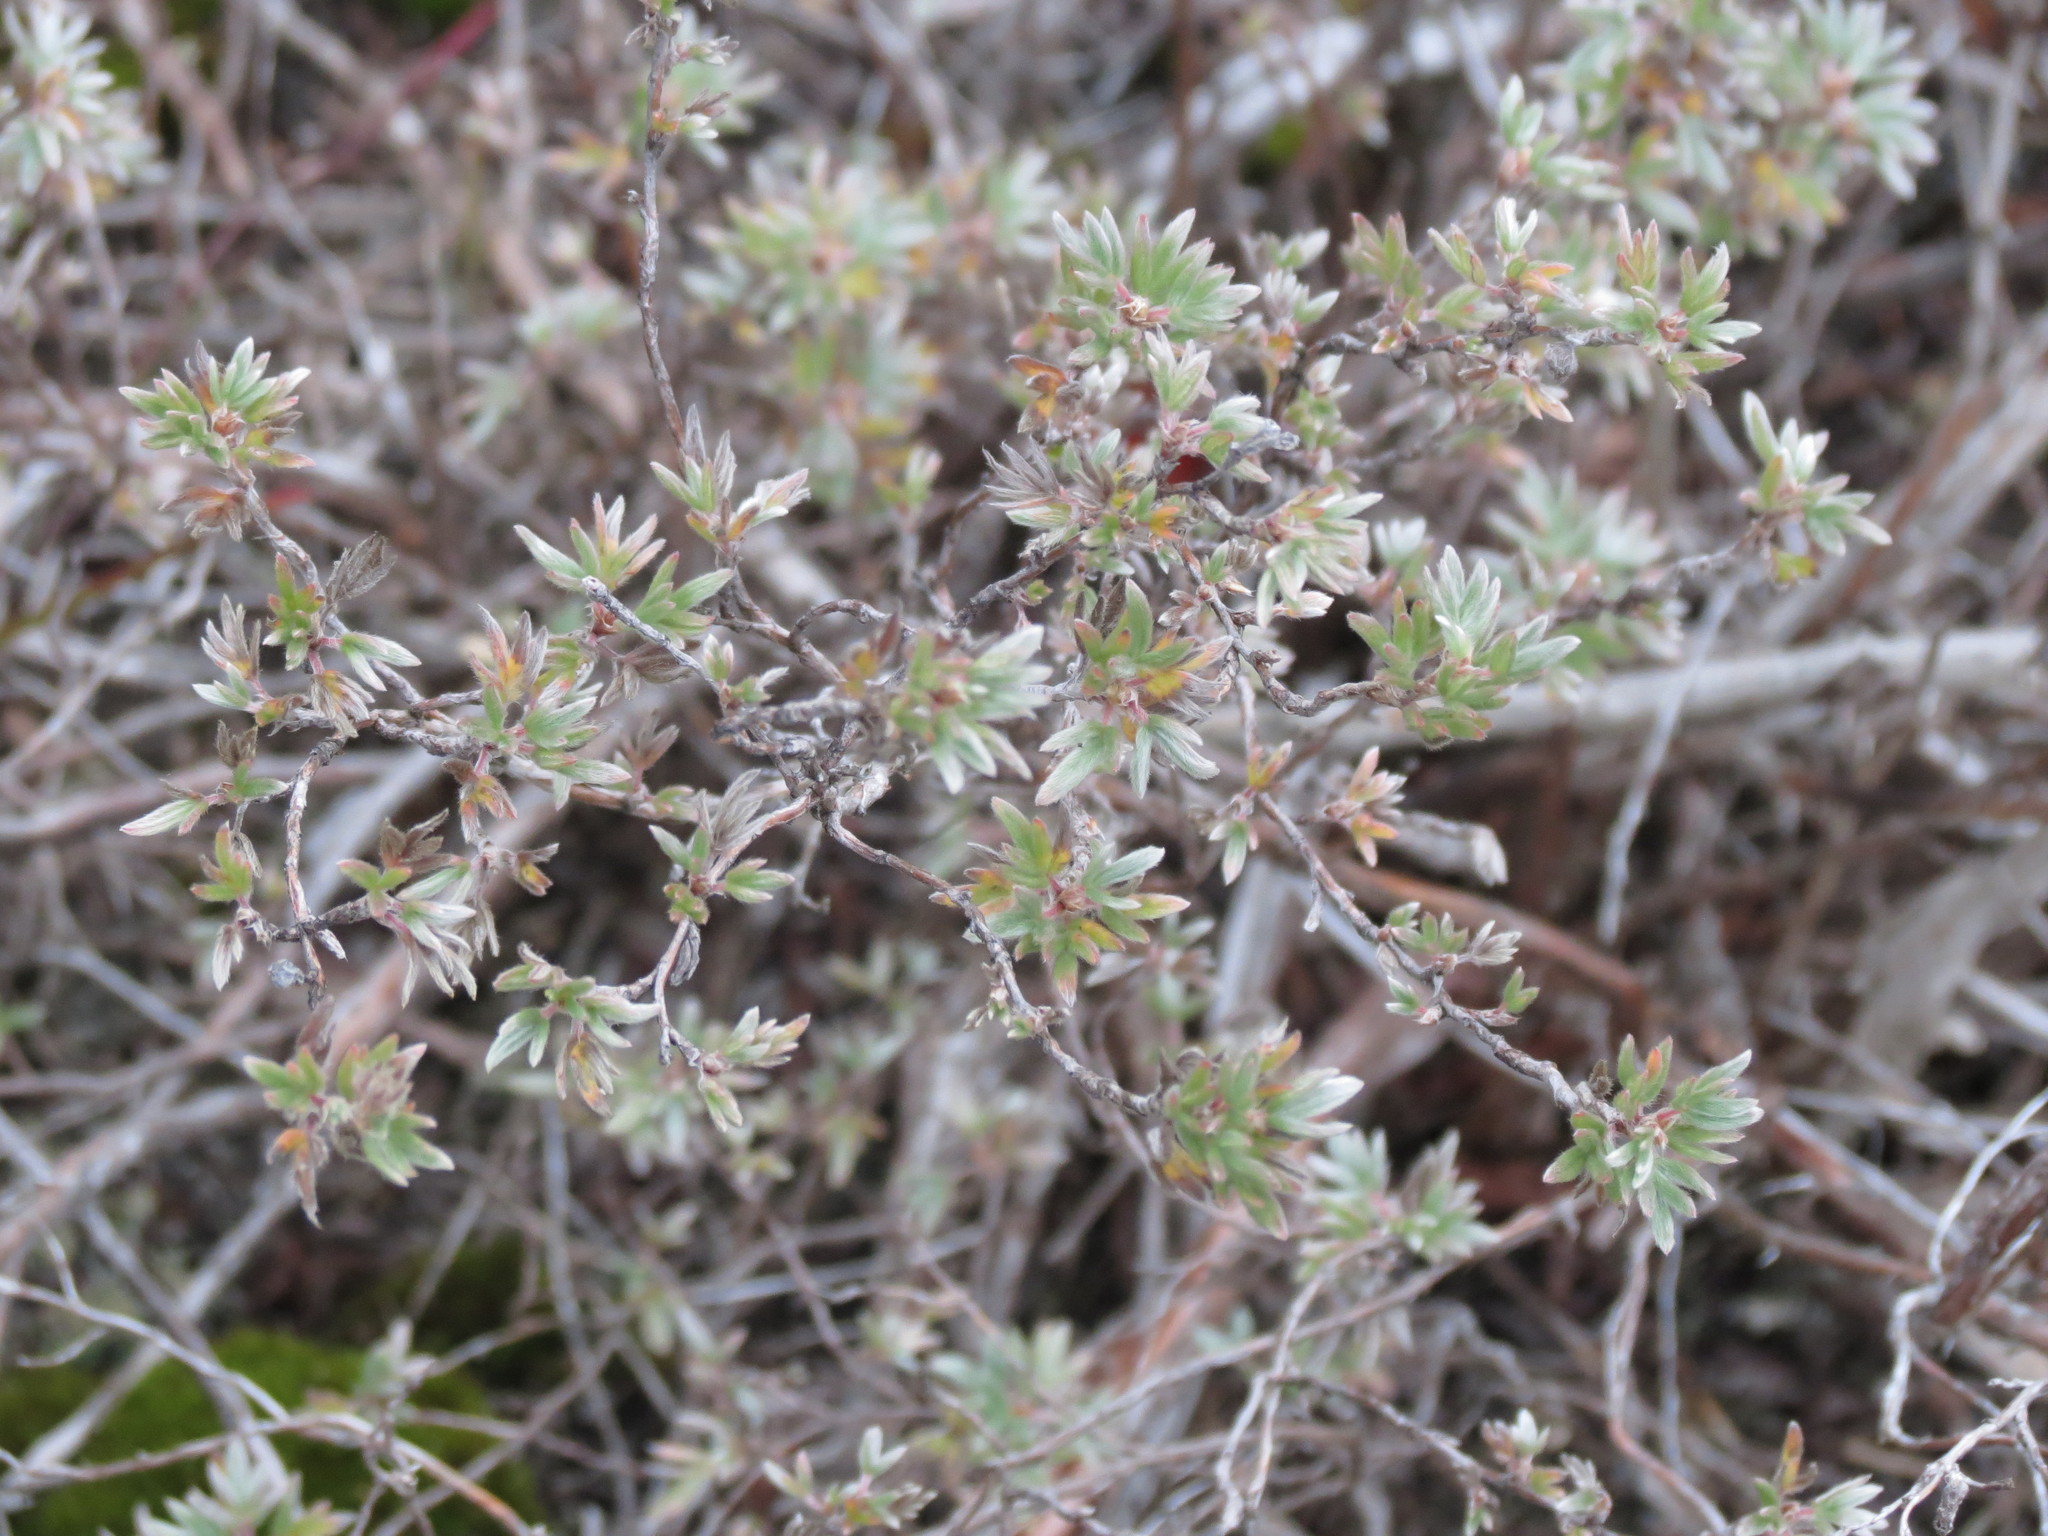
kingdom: Plantae
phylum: Tracheophyta
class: Magnoliopsida
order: Rosales
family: Rosaceae
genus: Dasiphora
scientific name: Dasiphora fruticosa
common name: Shrubby cinquefoil
